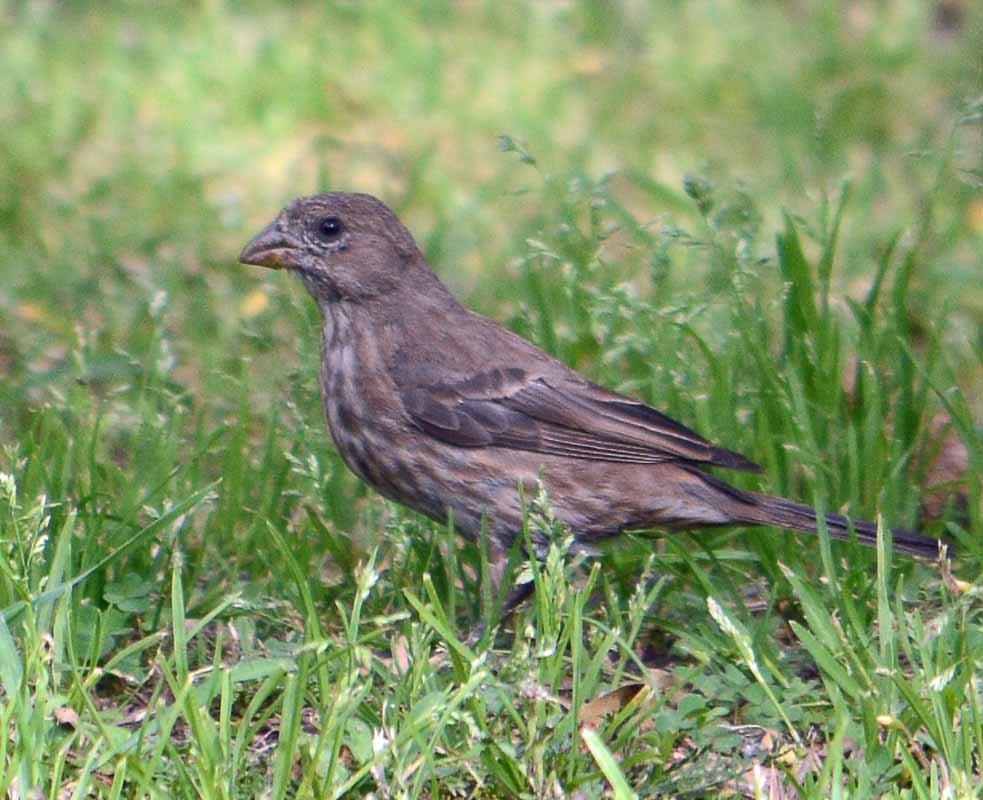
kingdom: Animalia
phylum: Chordata
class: Aves
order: Passeriformes
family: Fringillidae
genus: Haemorhous
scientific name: Haemorhous mexicanus
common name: House finch
